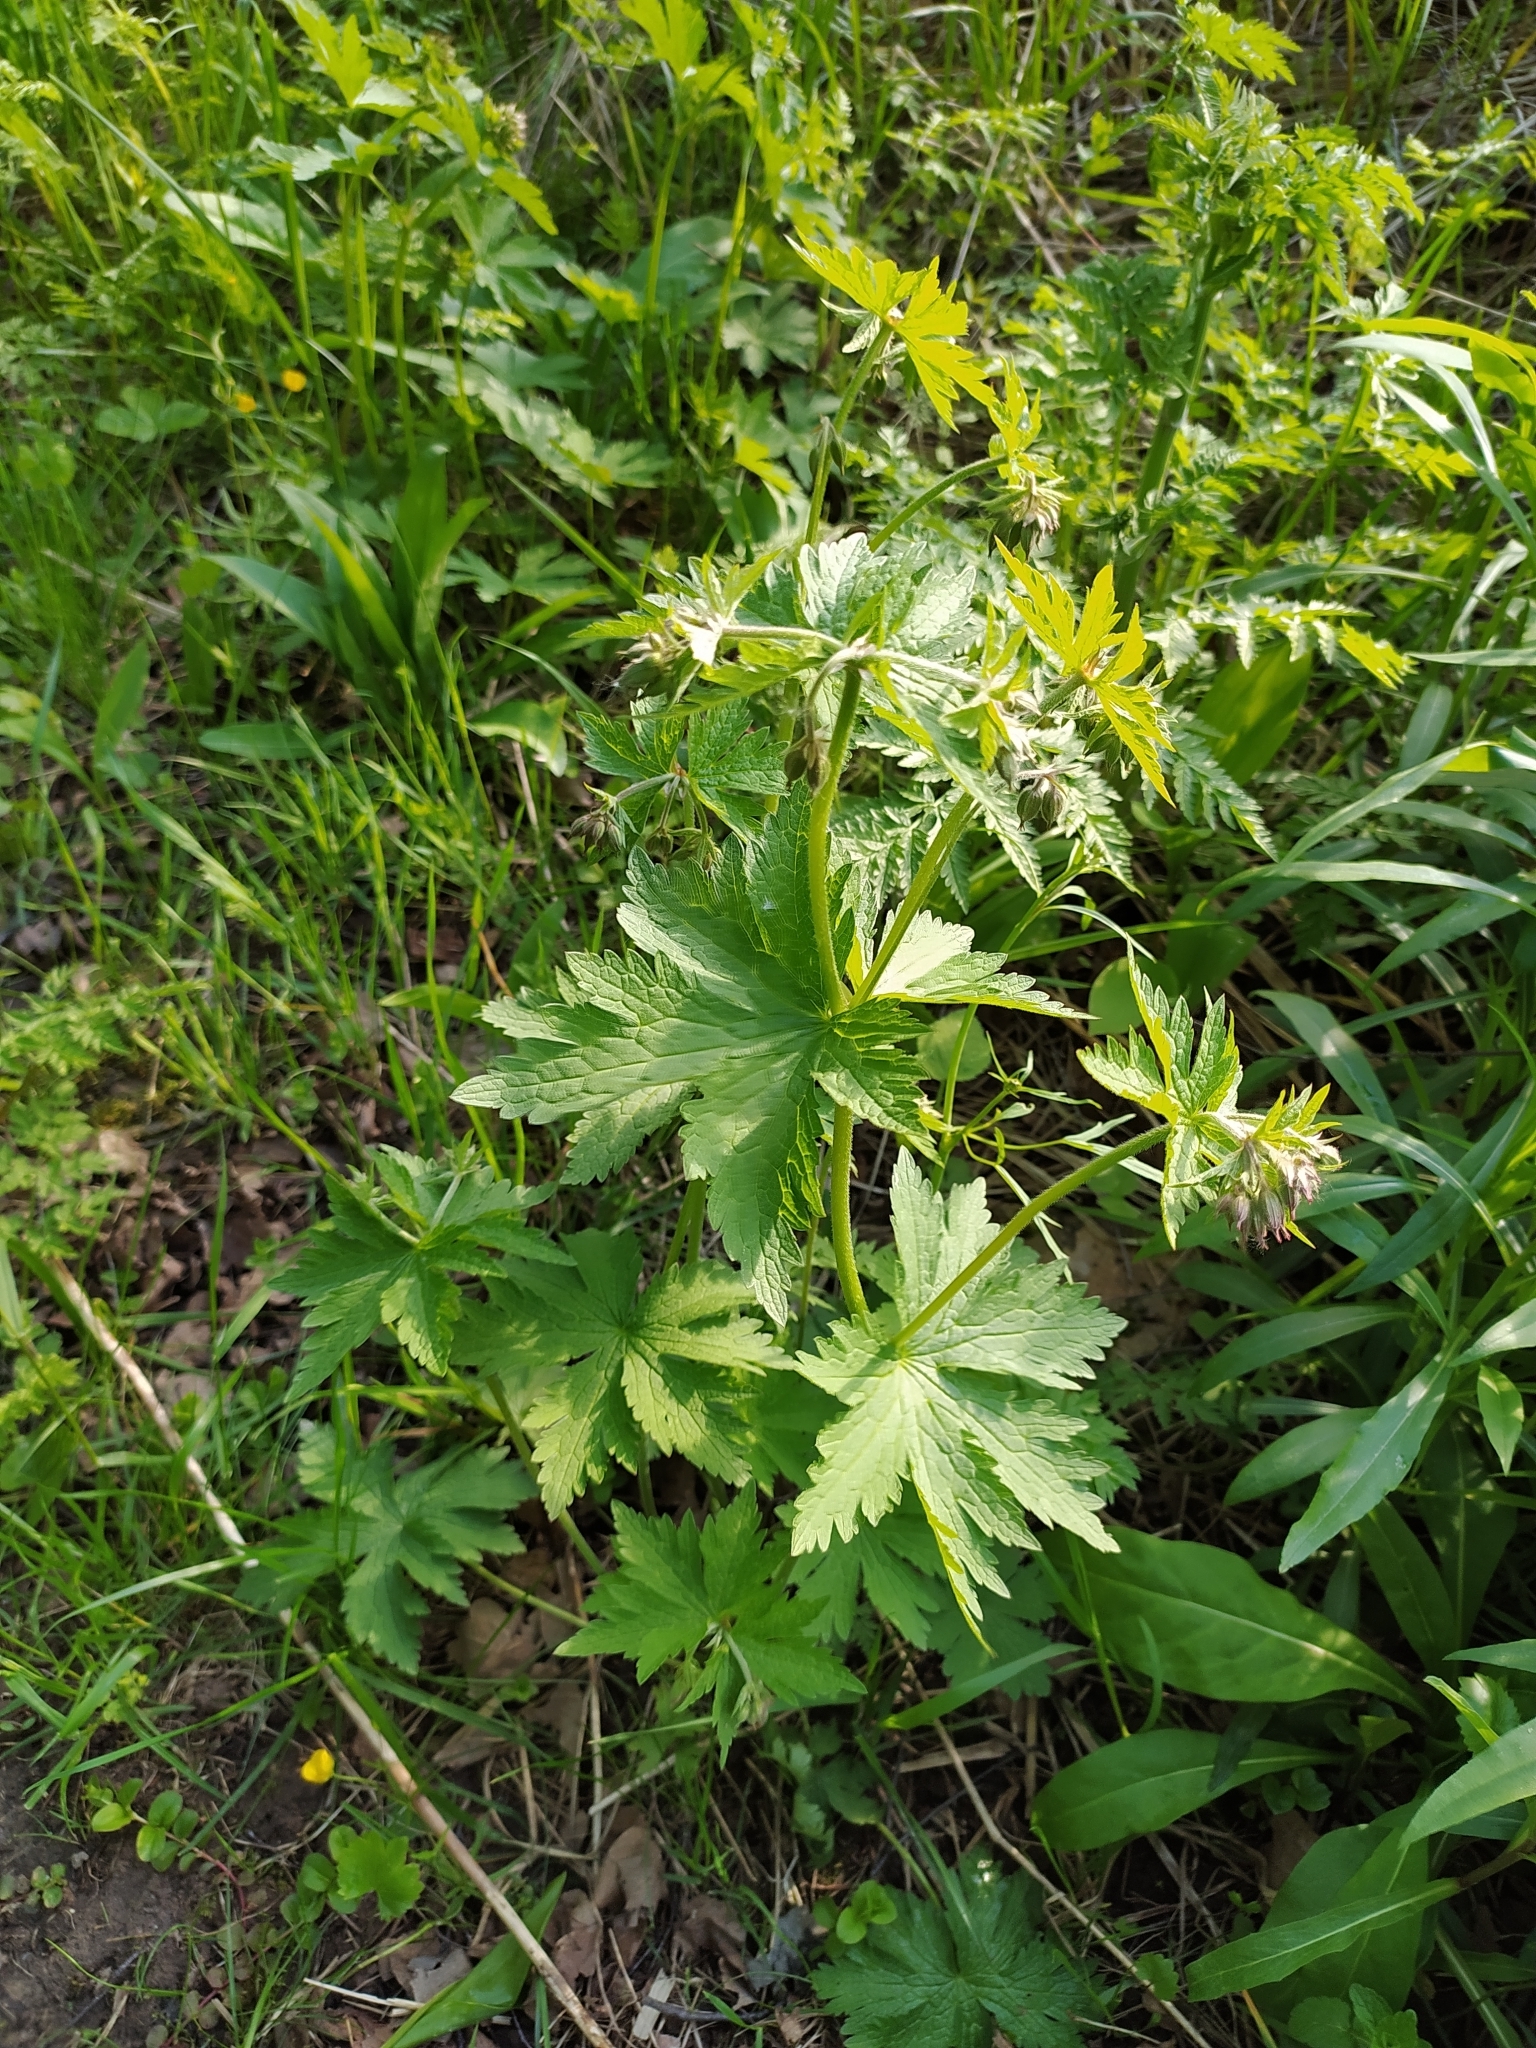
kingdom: Plantae
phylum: Tracheophyta
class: Magnoliopsida
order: Geraniales
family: Geraniaceae
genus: Geranium
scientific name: Geranium sylvaticum
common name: Wood crane's-bill
